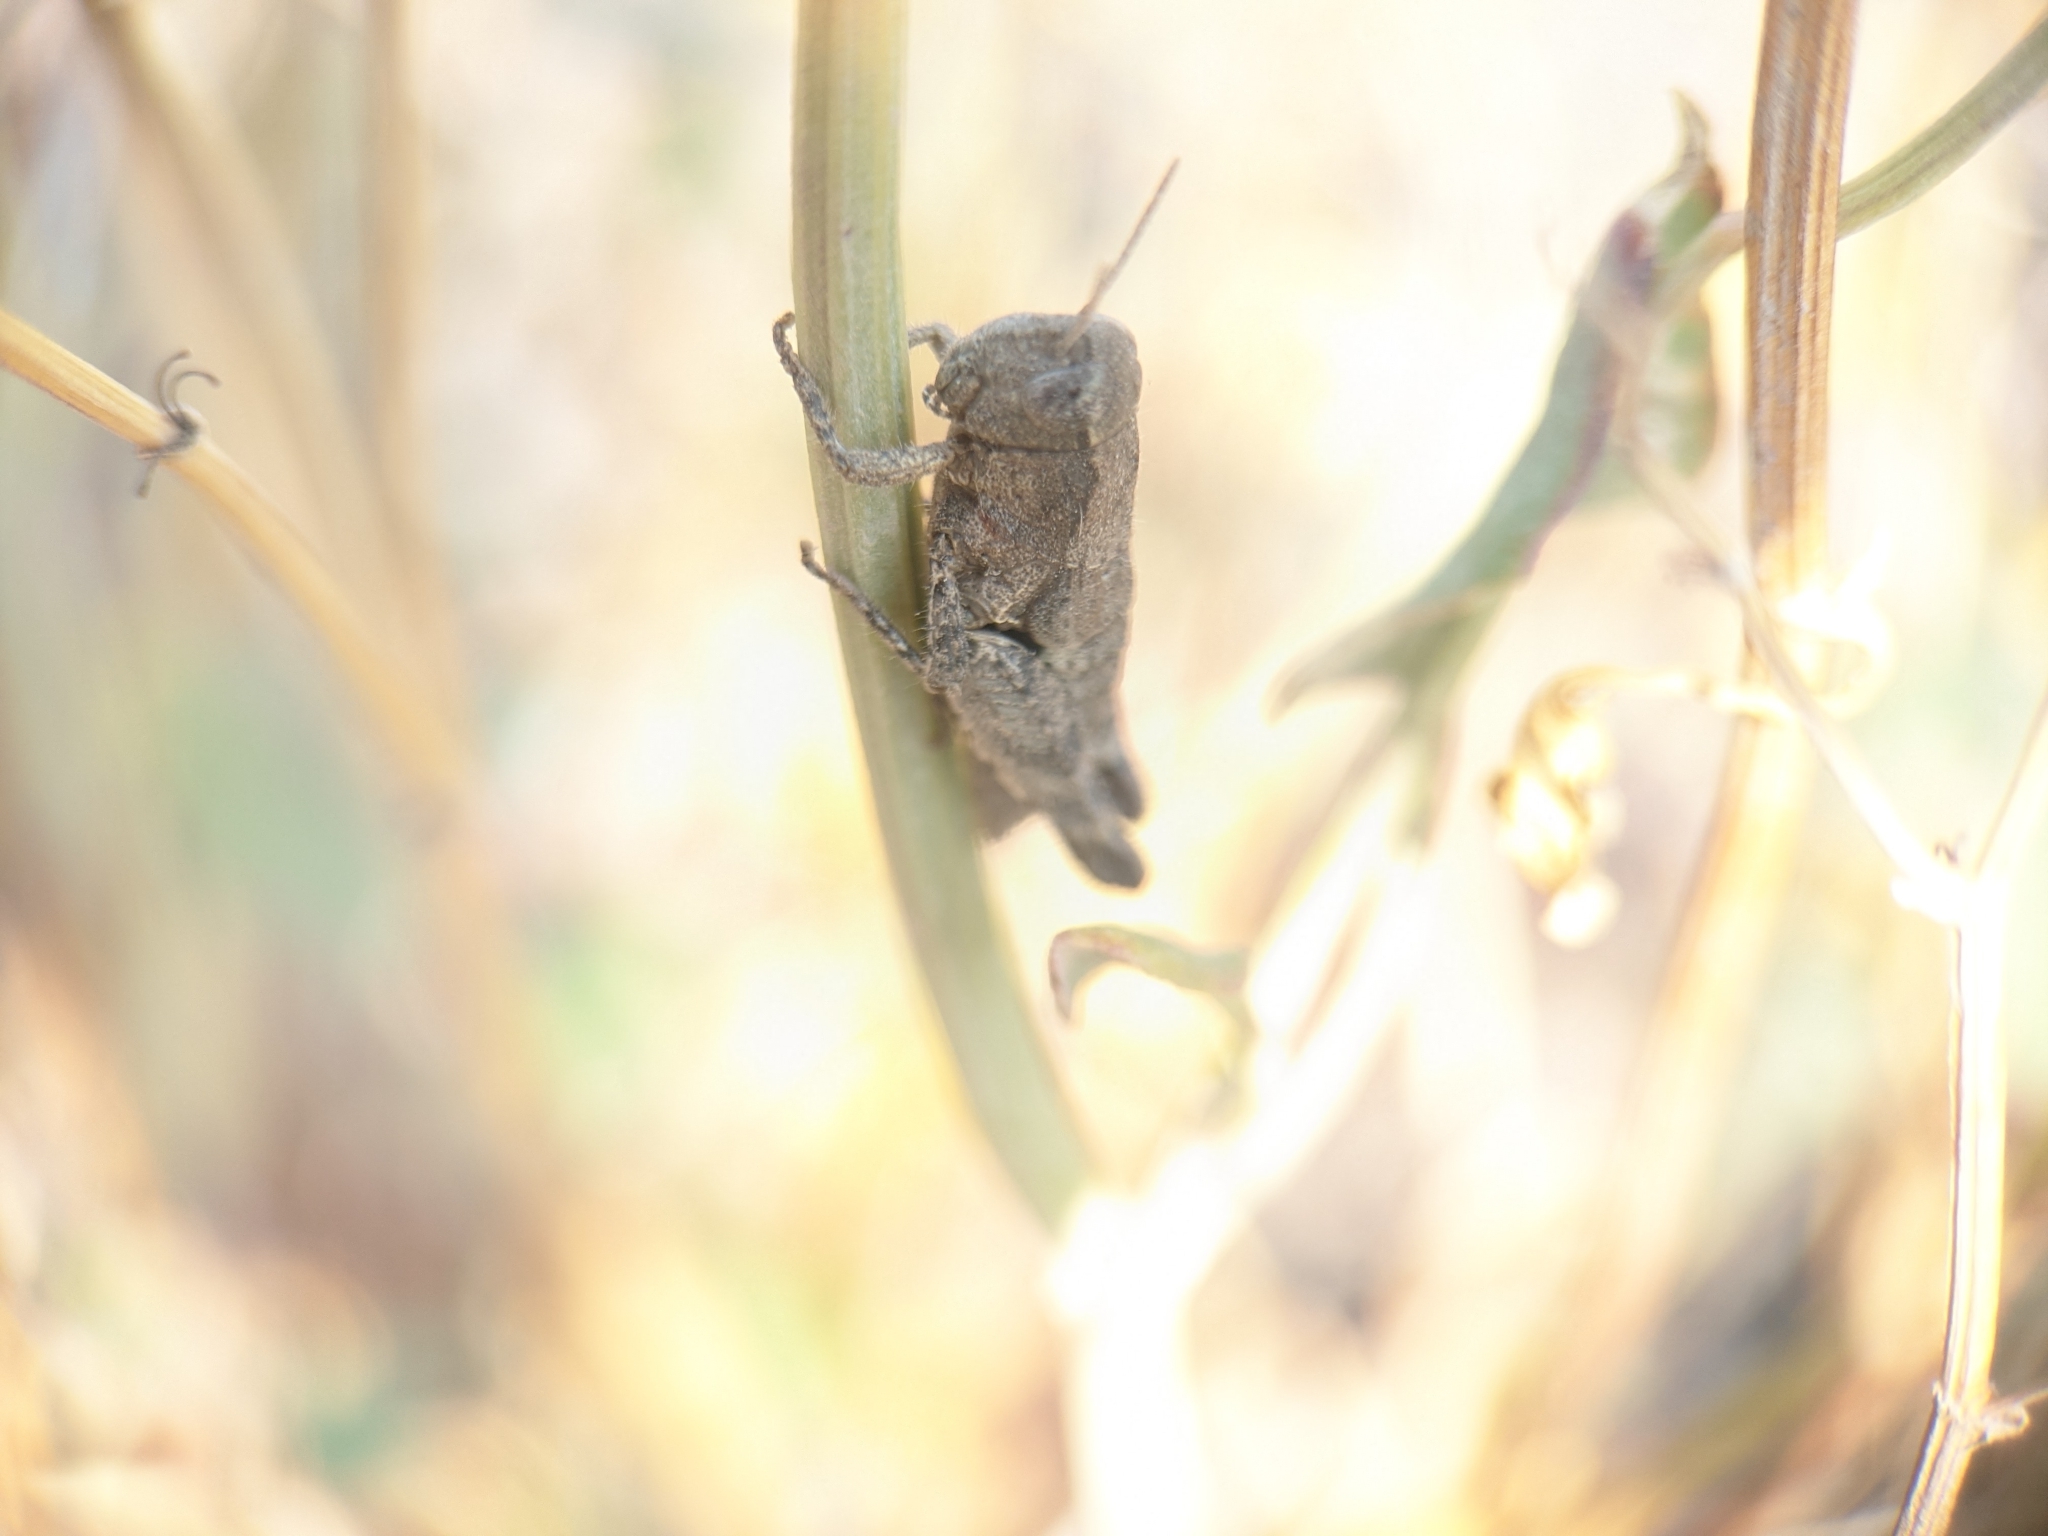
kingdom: Animalia
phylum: Arthropoda
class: Insecta
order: Orthoptera
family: Acrididae
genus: Pezotettix
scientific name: Pezotettix giornae
